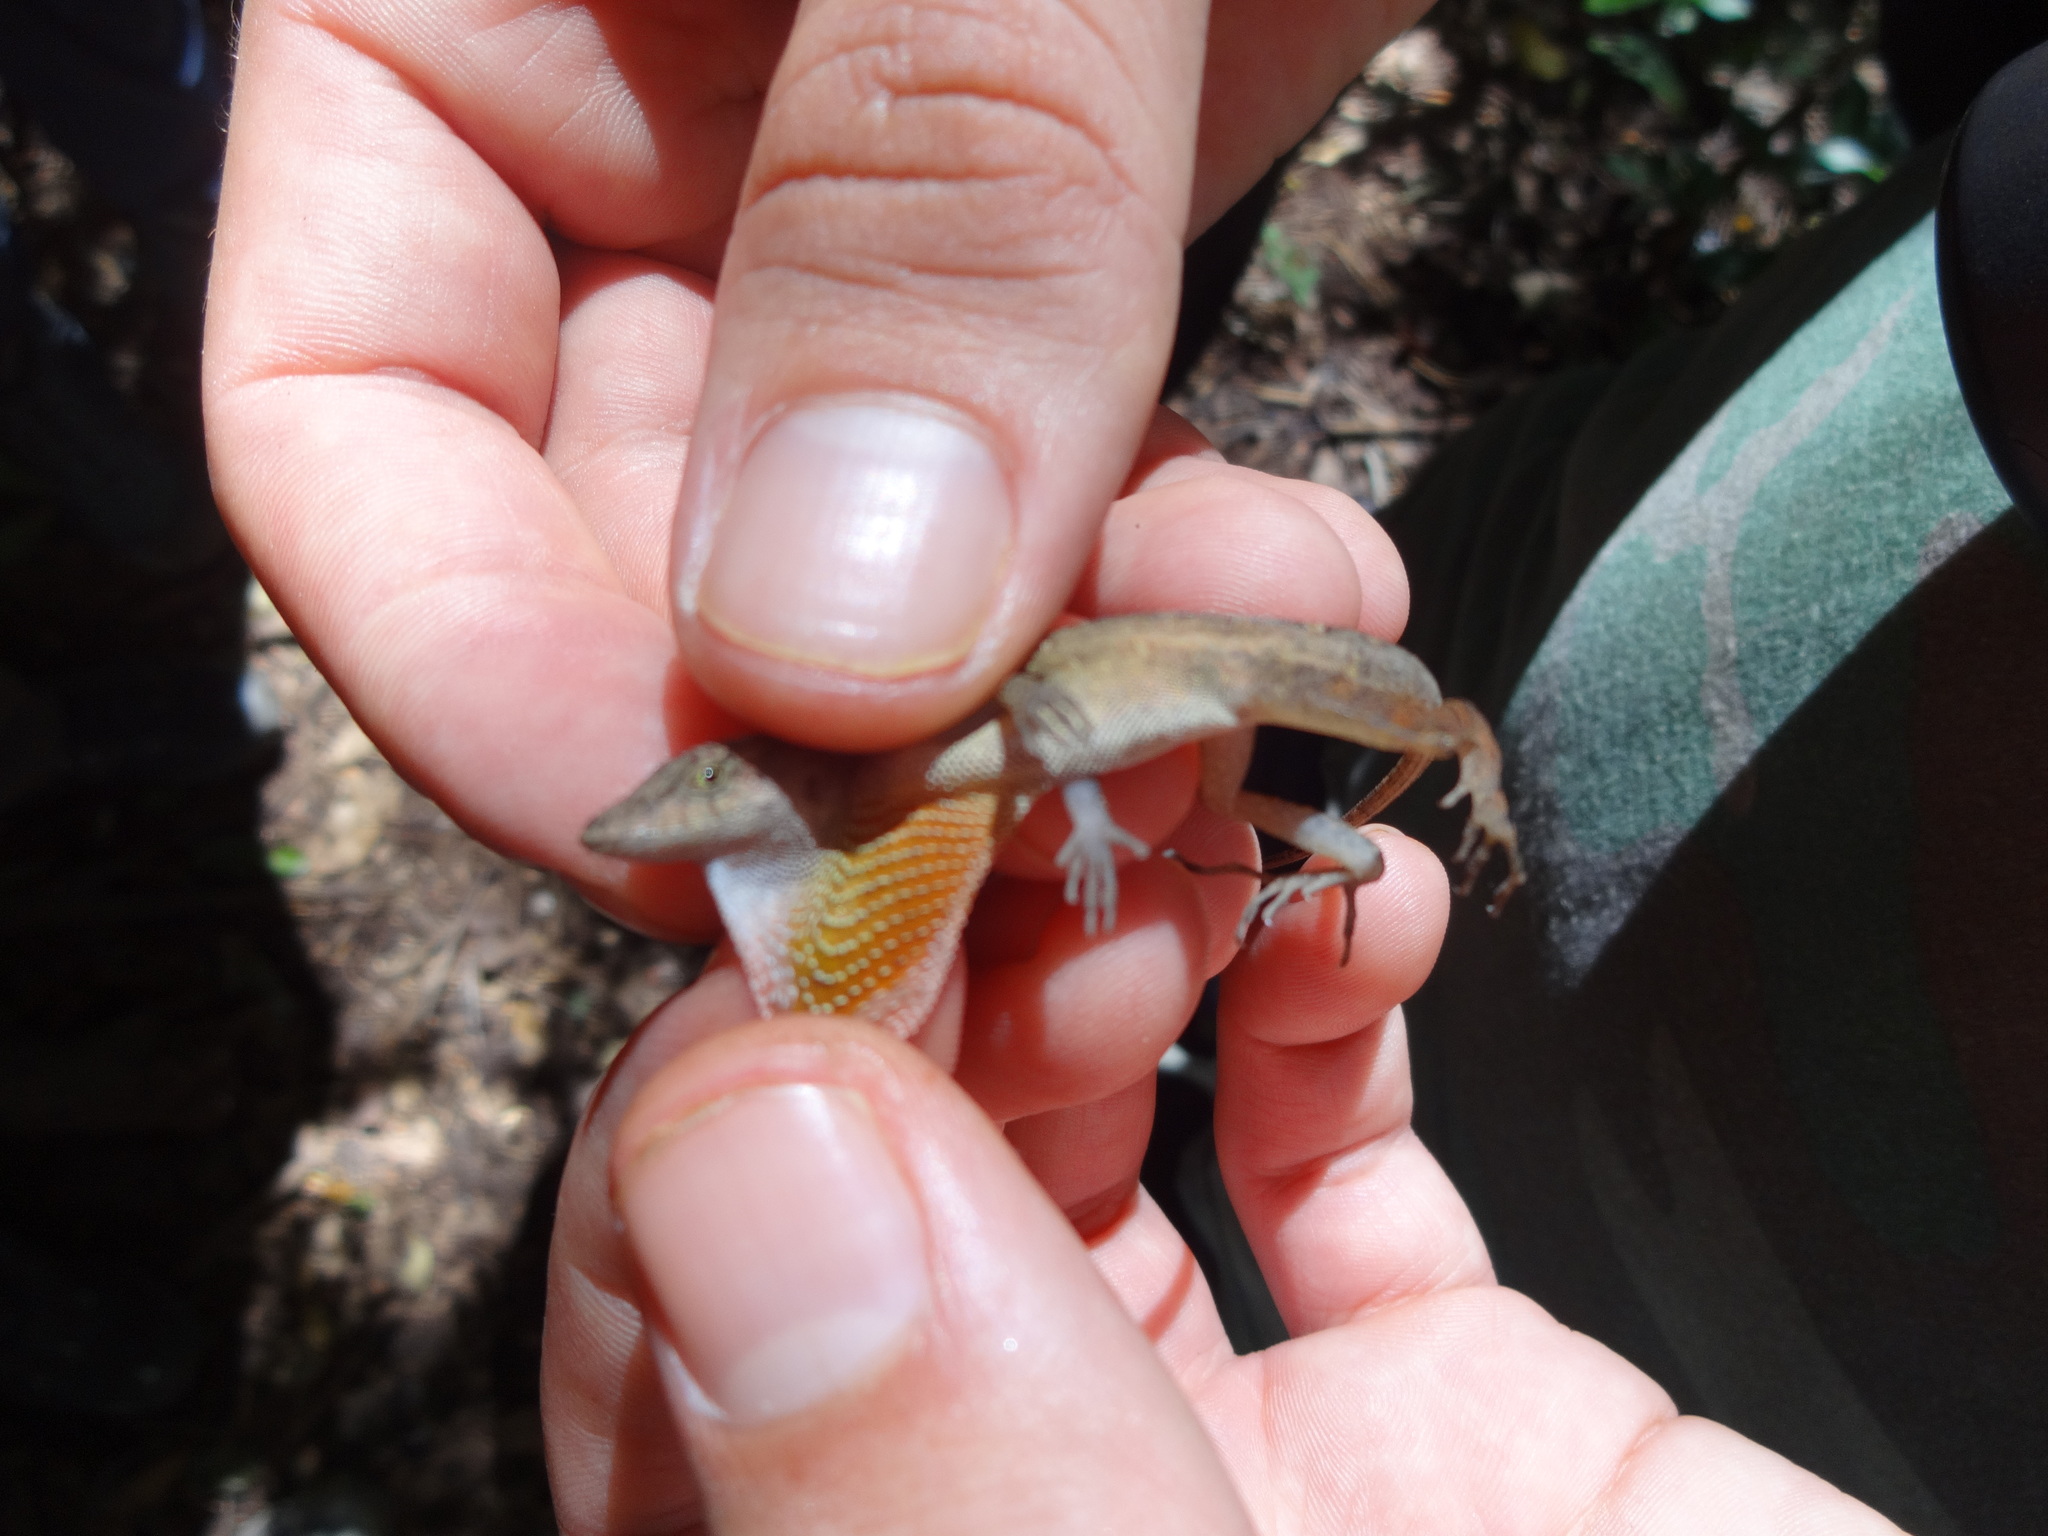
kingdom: Animalia
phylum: Chordata
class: Squamata
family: Dactyloidae
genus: Anolis
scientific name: Anolis cupreus
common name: Copper anole
